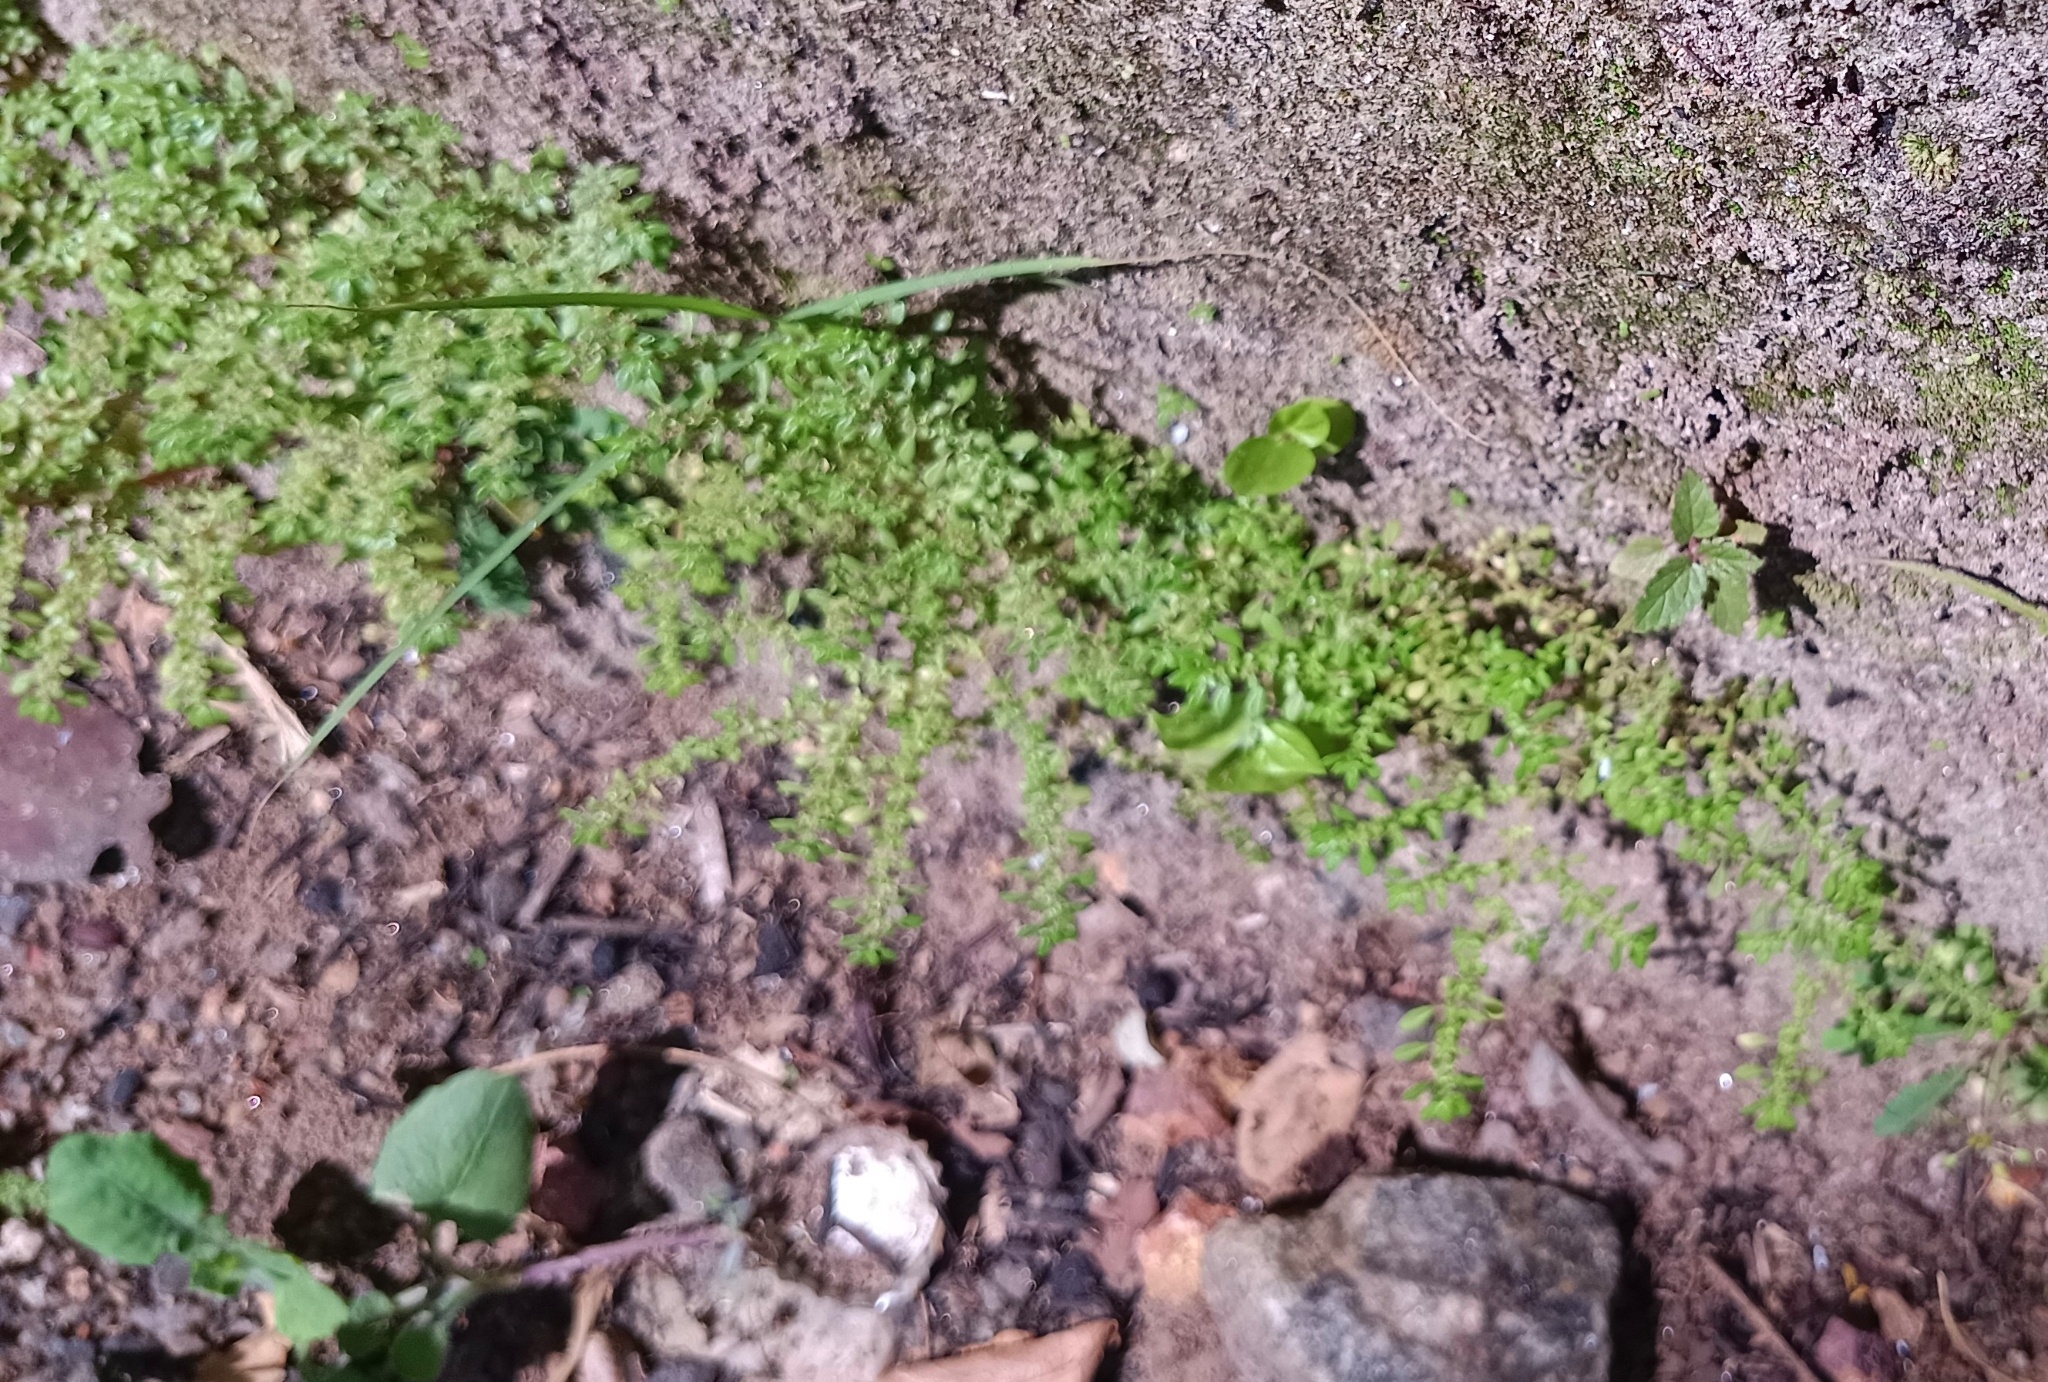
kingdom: Plantae
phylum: Tracheophyta
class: Magnoliopsida
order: Rosales
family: Urticaceae
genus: Pilea
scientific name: Pilea microphylla
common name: Artillery-plant
